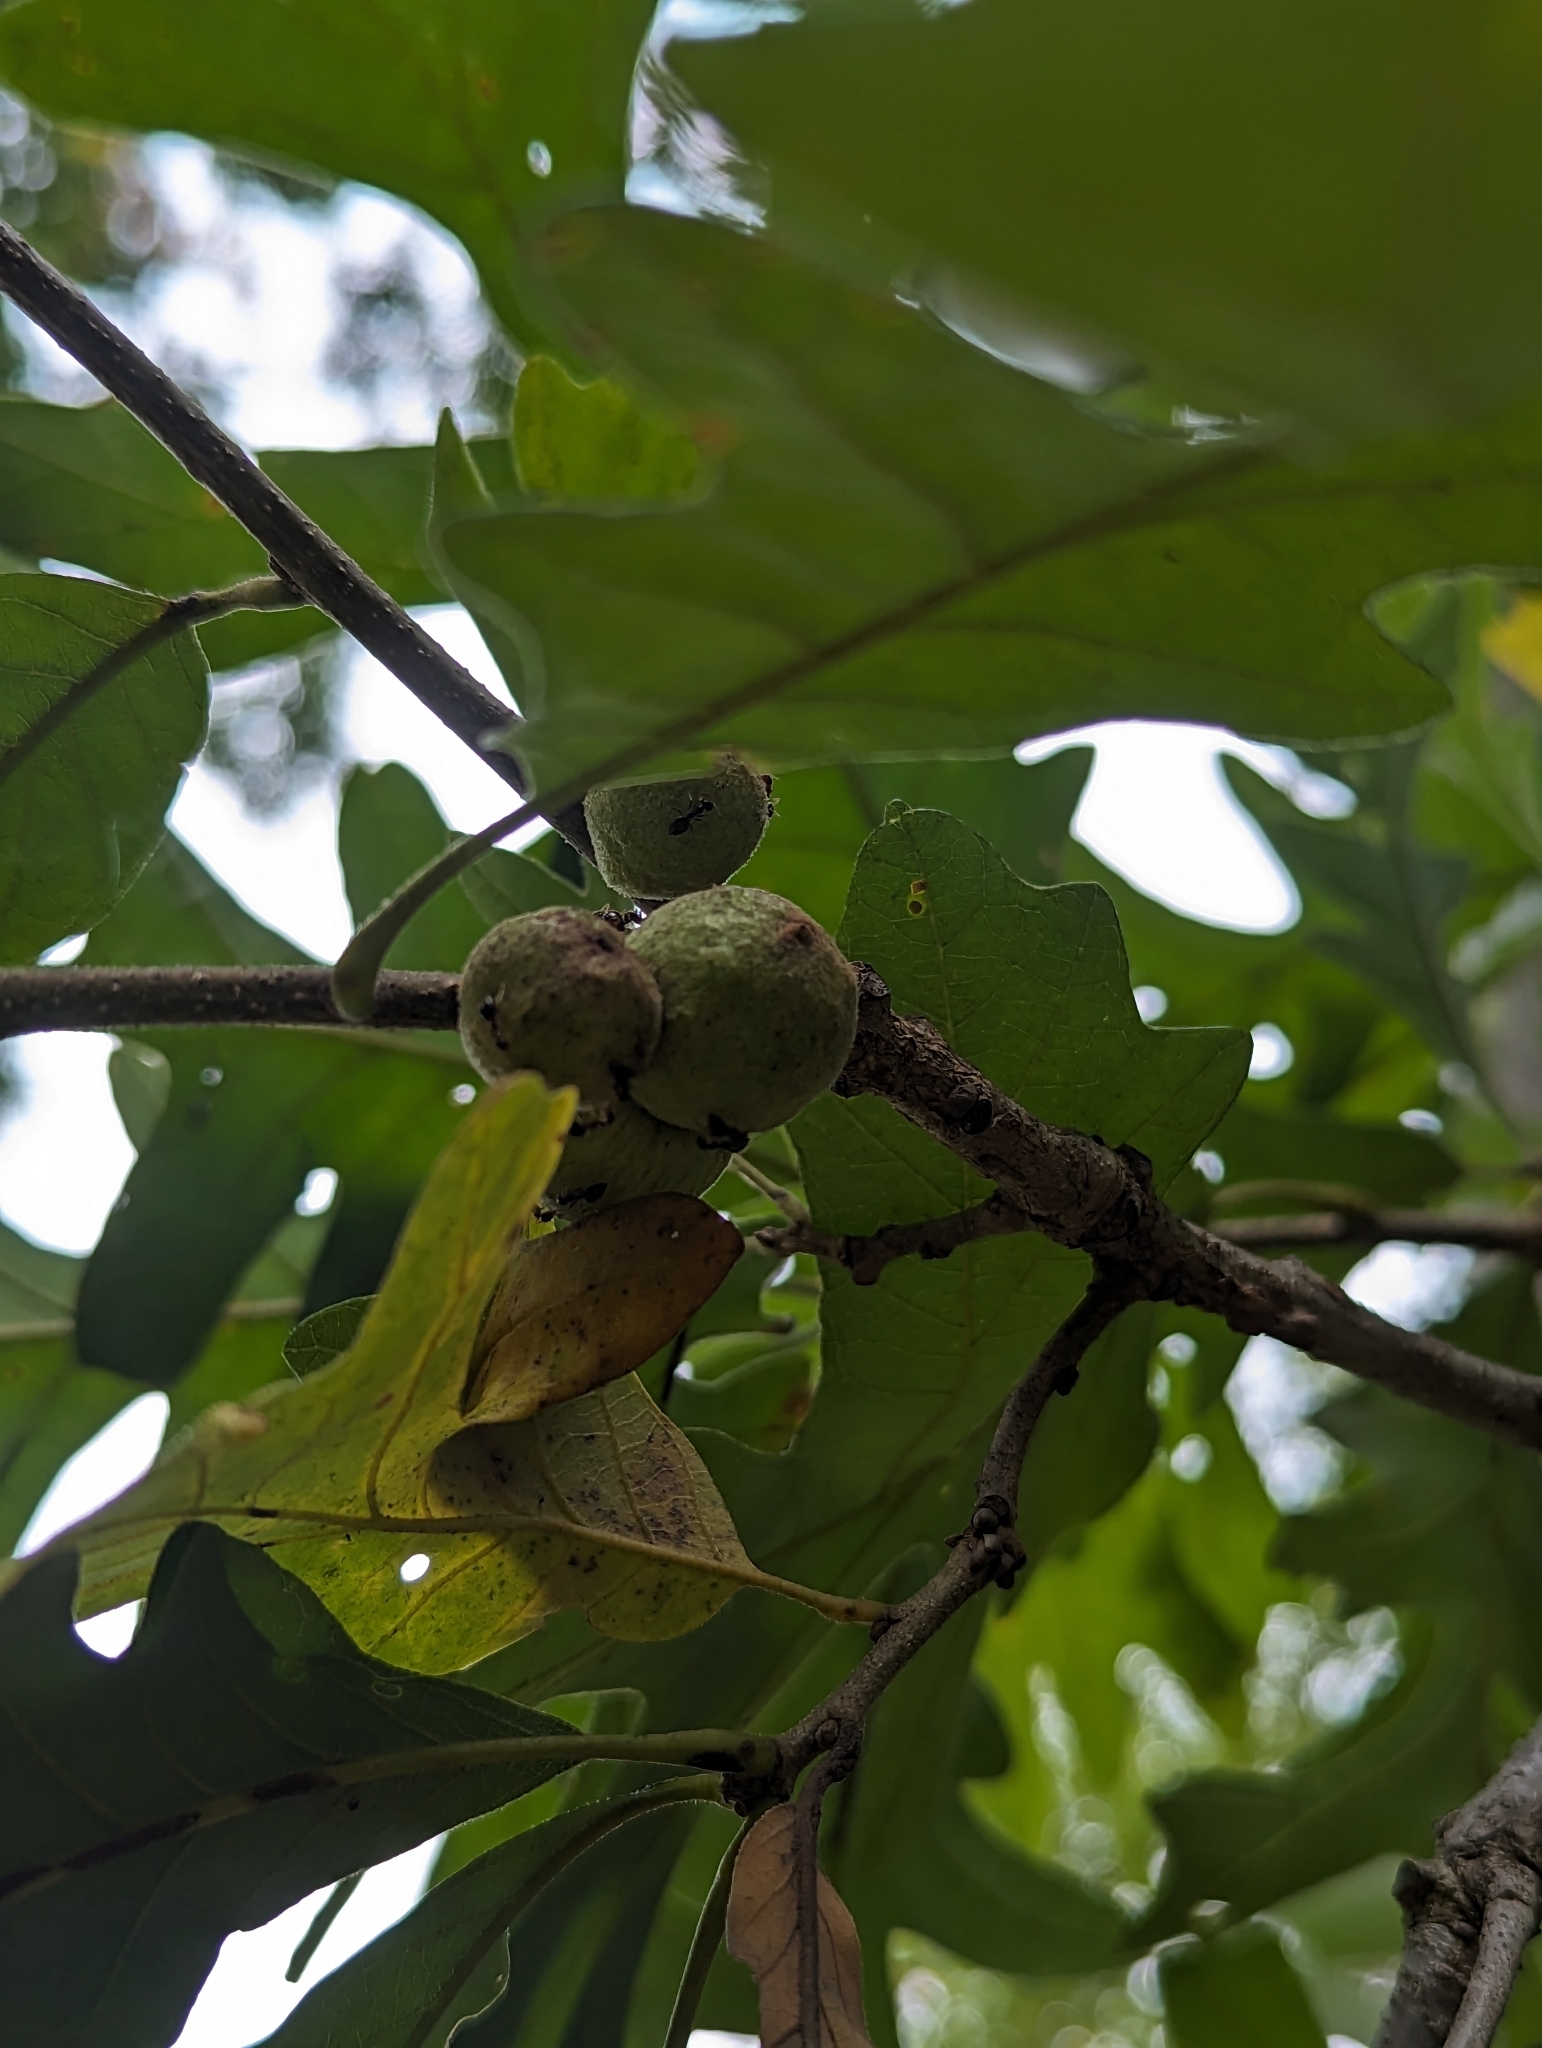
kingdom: Animalia
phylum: Arthropoda
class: Insecta
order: Hymenoptera
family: Cynipidae
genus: Disholcaspis
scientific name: Disholcaspis
